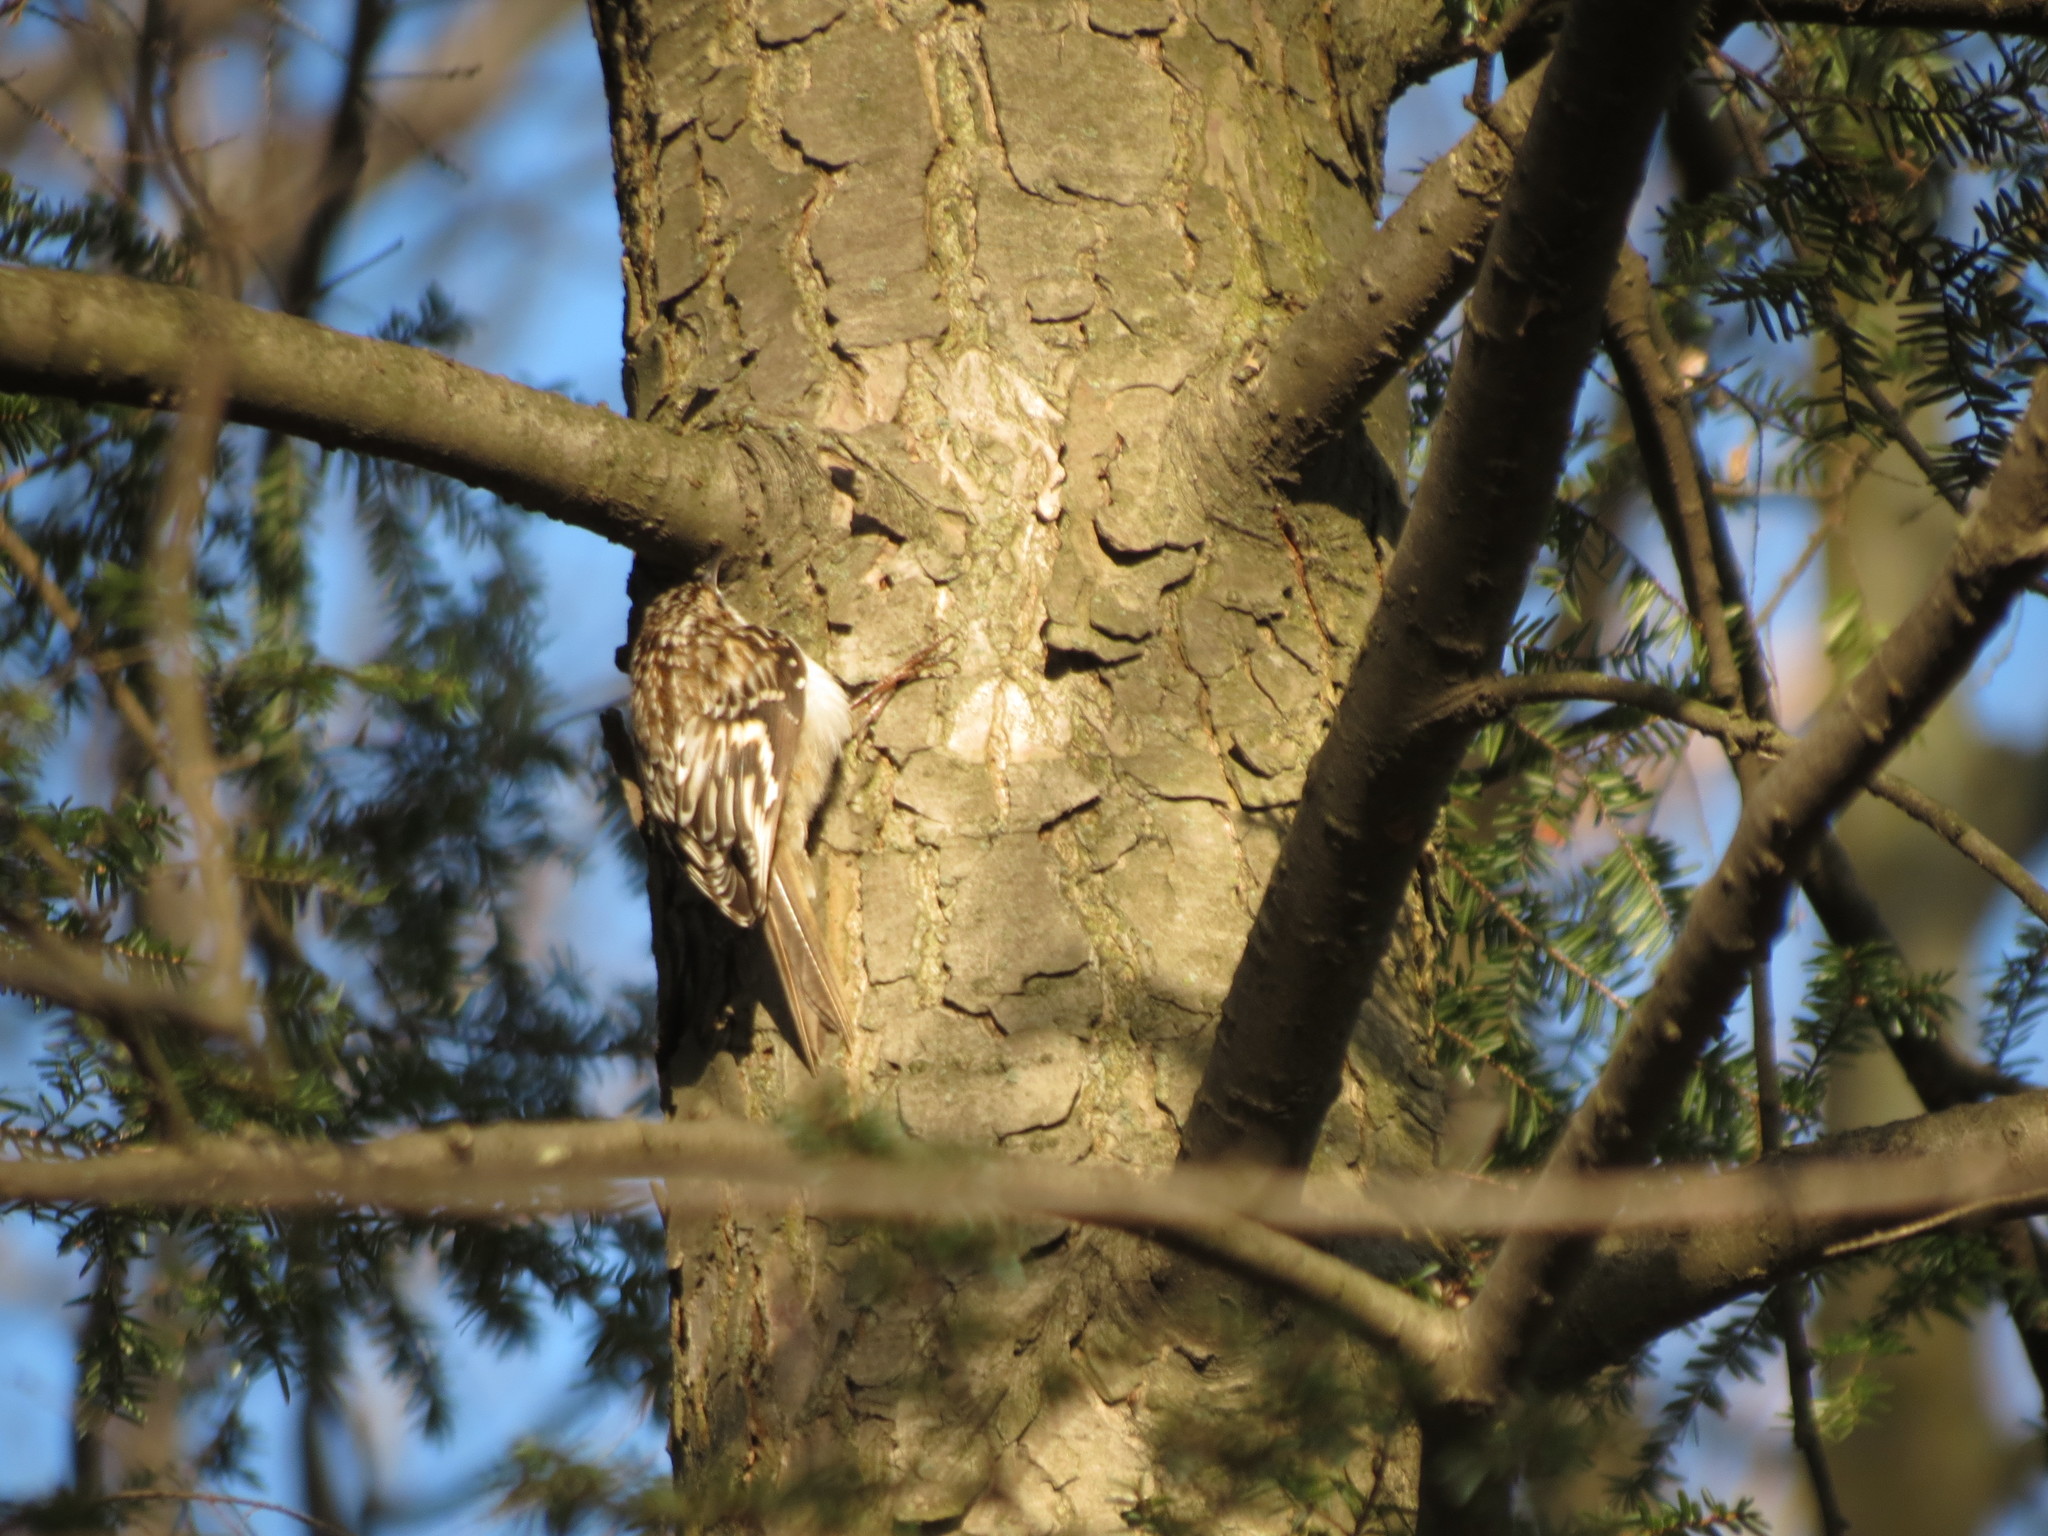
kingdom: Animalia
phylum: Chordata
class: Aves
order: Passeriformes
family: Certhiidae
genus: Certhia
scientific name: Certhia americana
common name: Brown creeper
